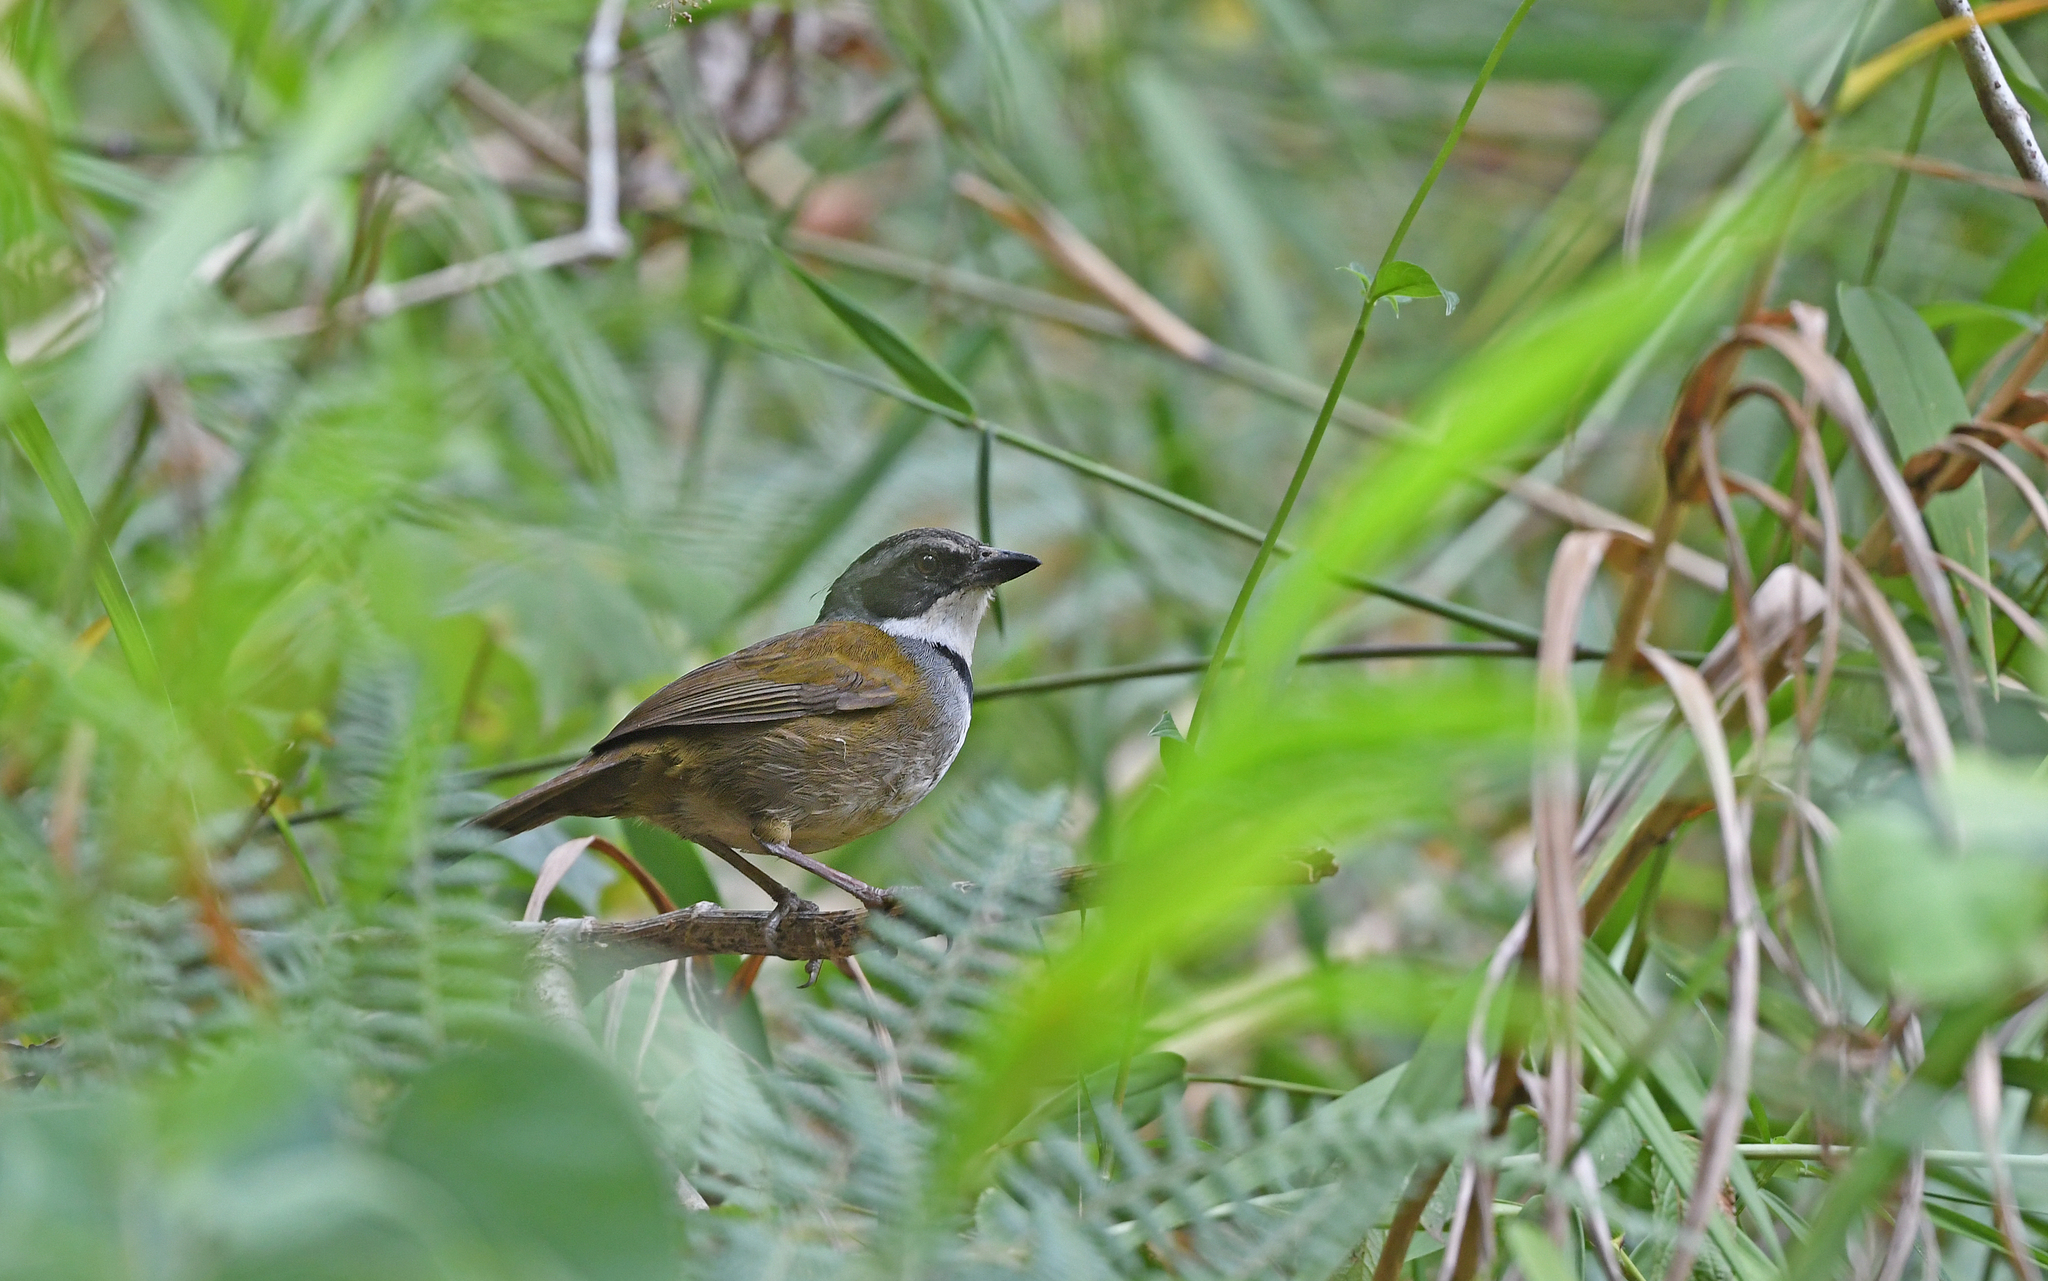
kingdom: Animalia
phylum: Chordata
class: Aves
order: Passeriformes
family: Passerellidae
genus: Arremon
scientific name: Arremon basilicus
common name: Sierra nevada brushfinch
